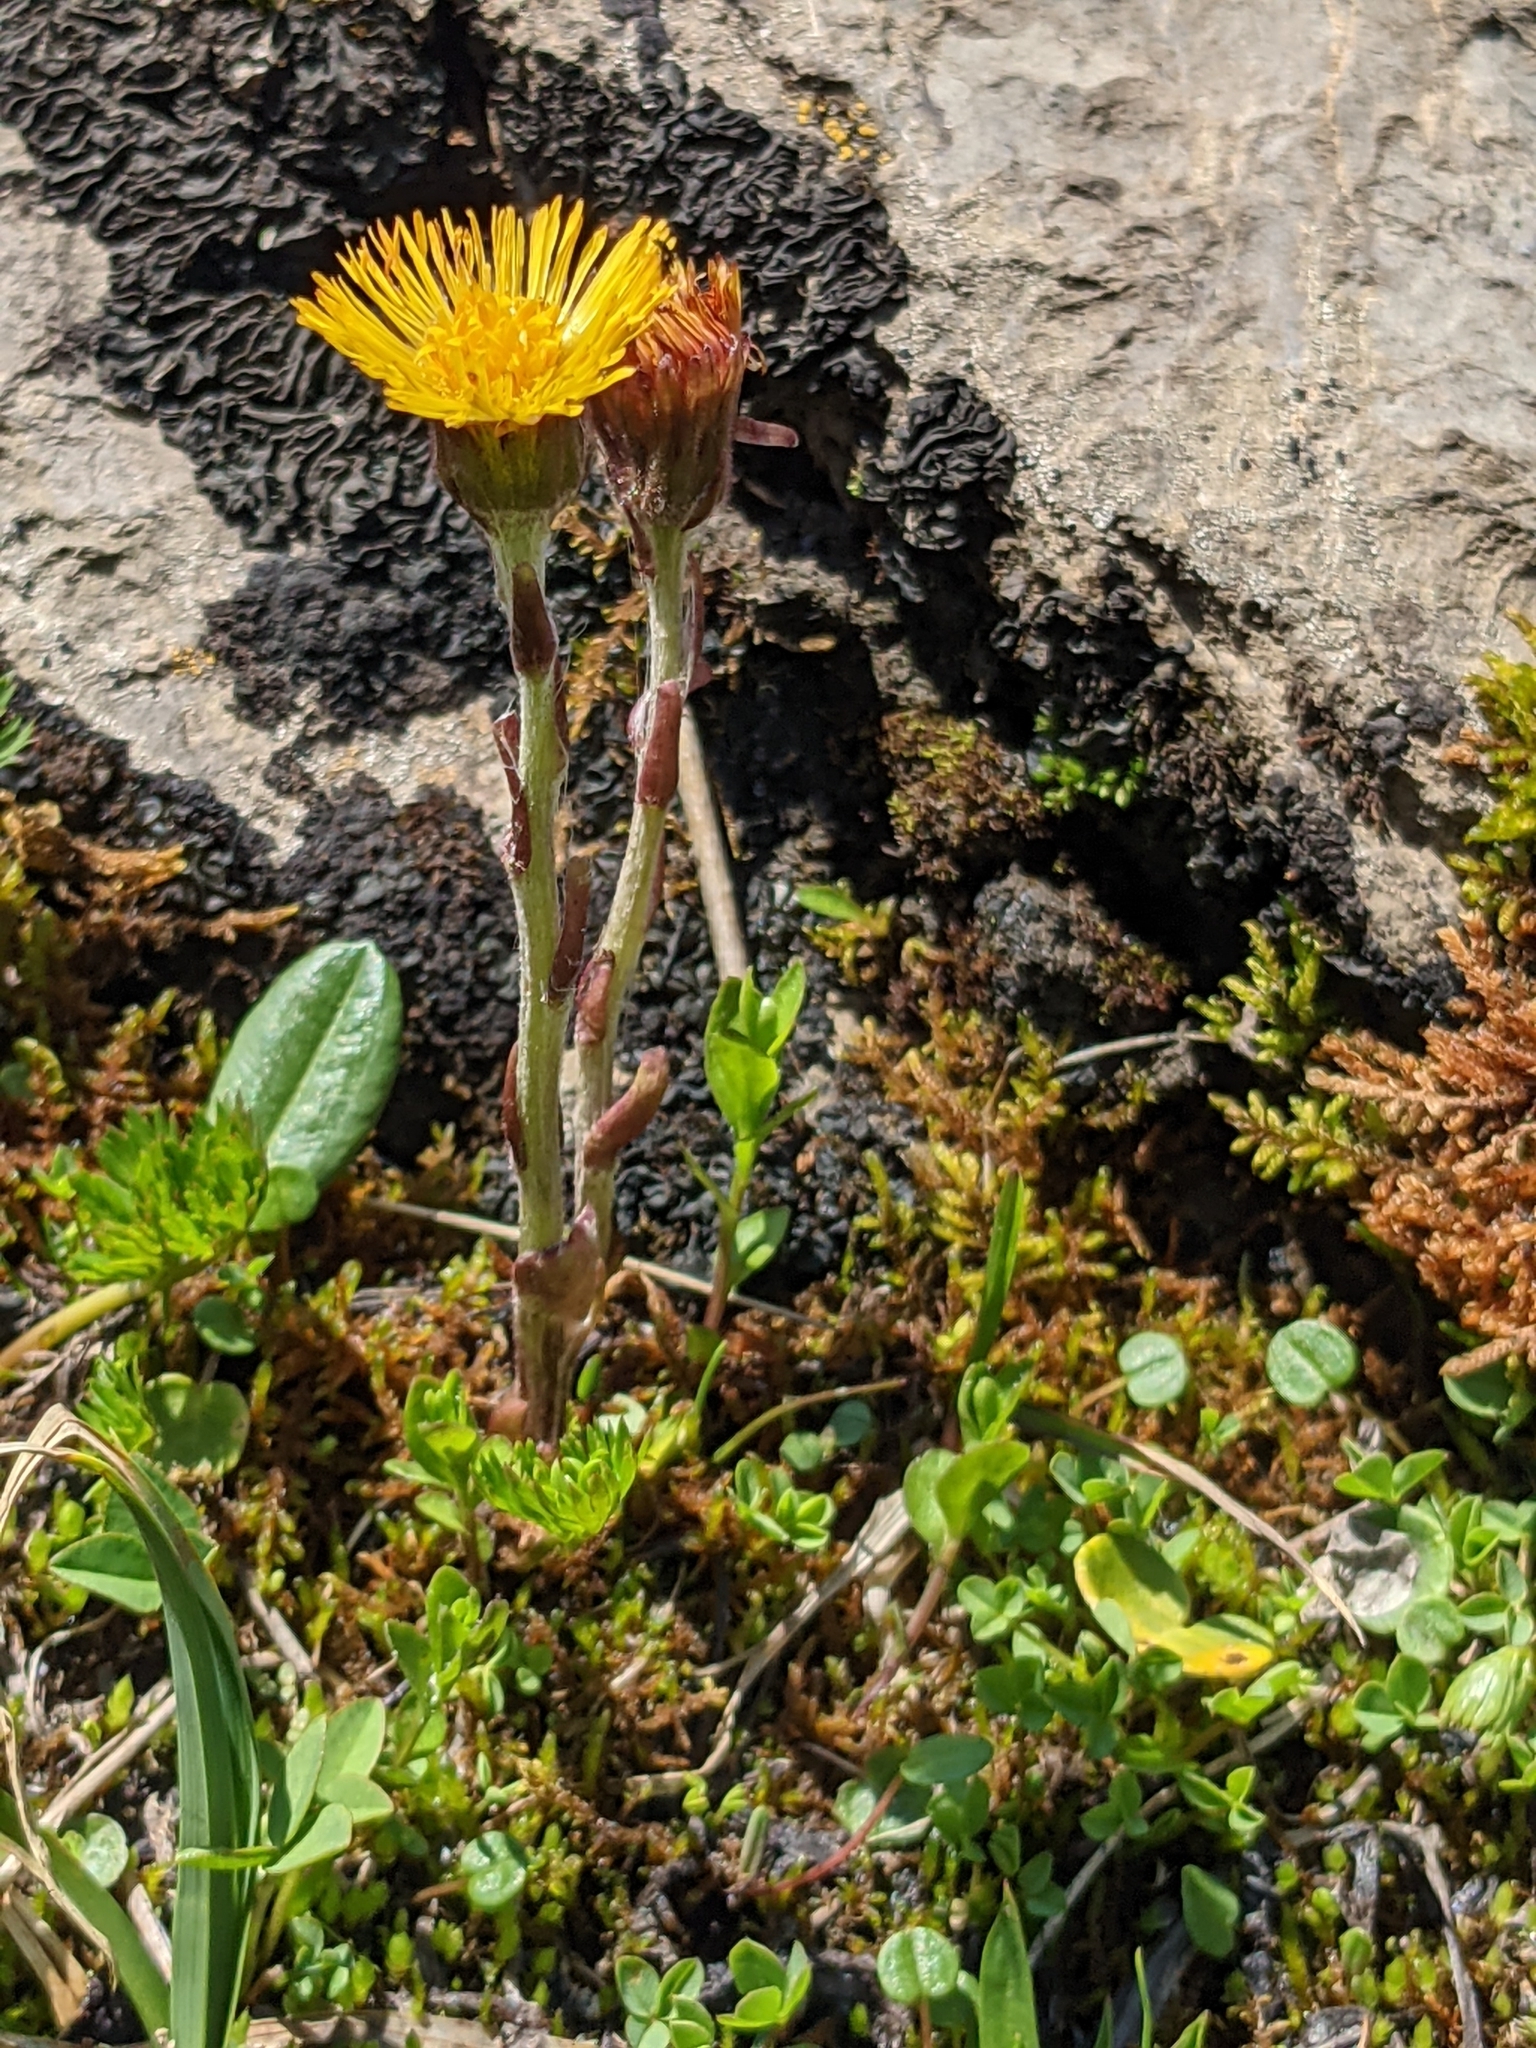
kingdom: Plantae
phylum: Tracheophyta
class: Magnoliopsida
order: Asterales
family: Asteraceae
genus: Tussilago
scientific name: Tussilago farfara
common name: Coltsfoot
